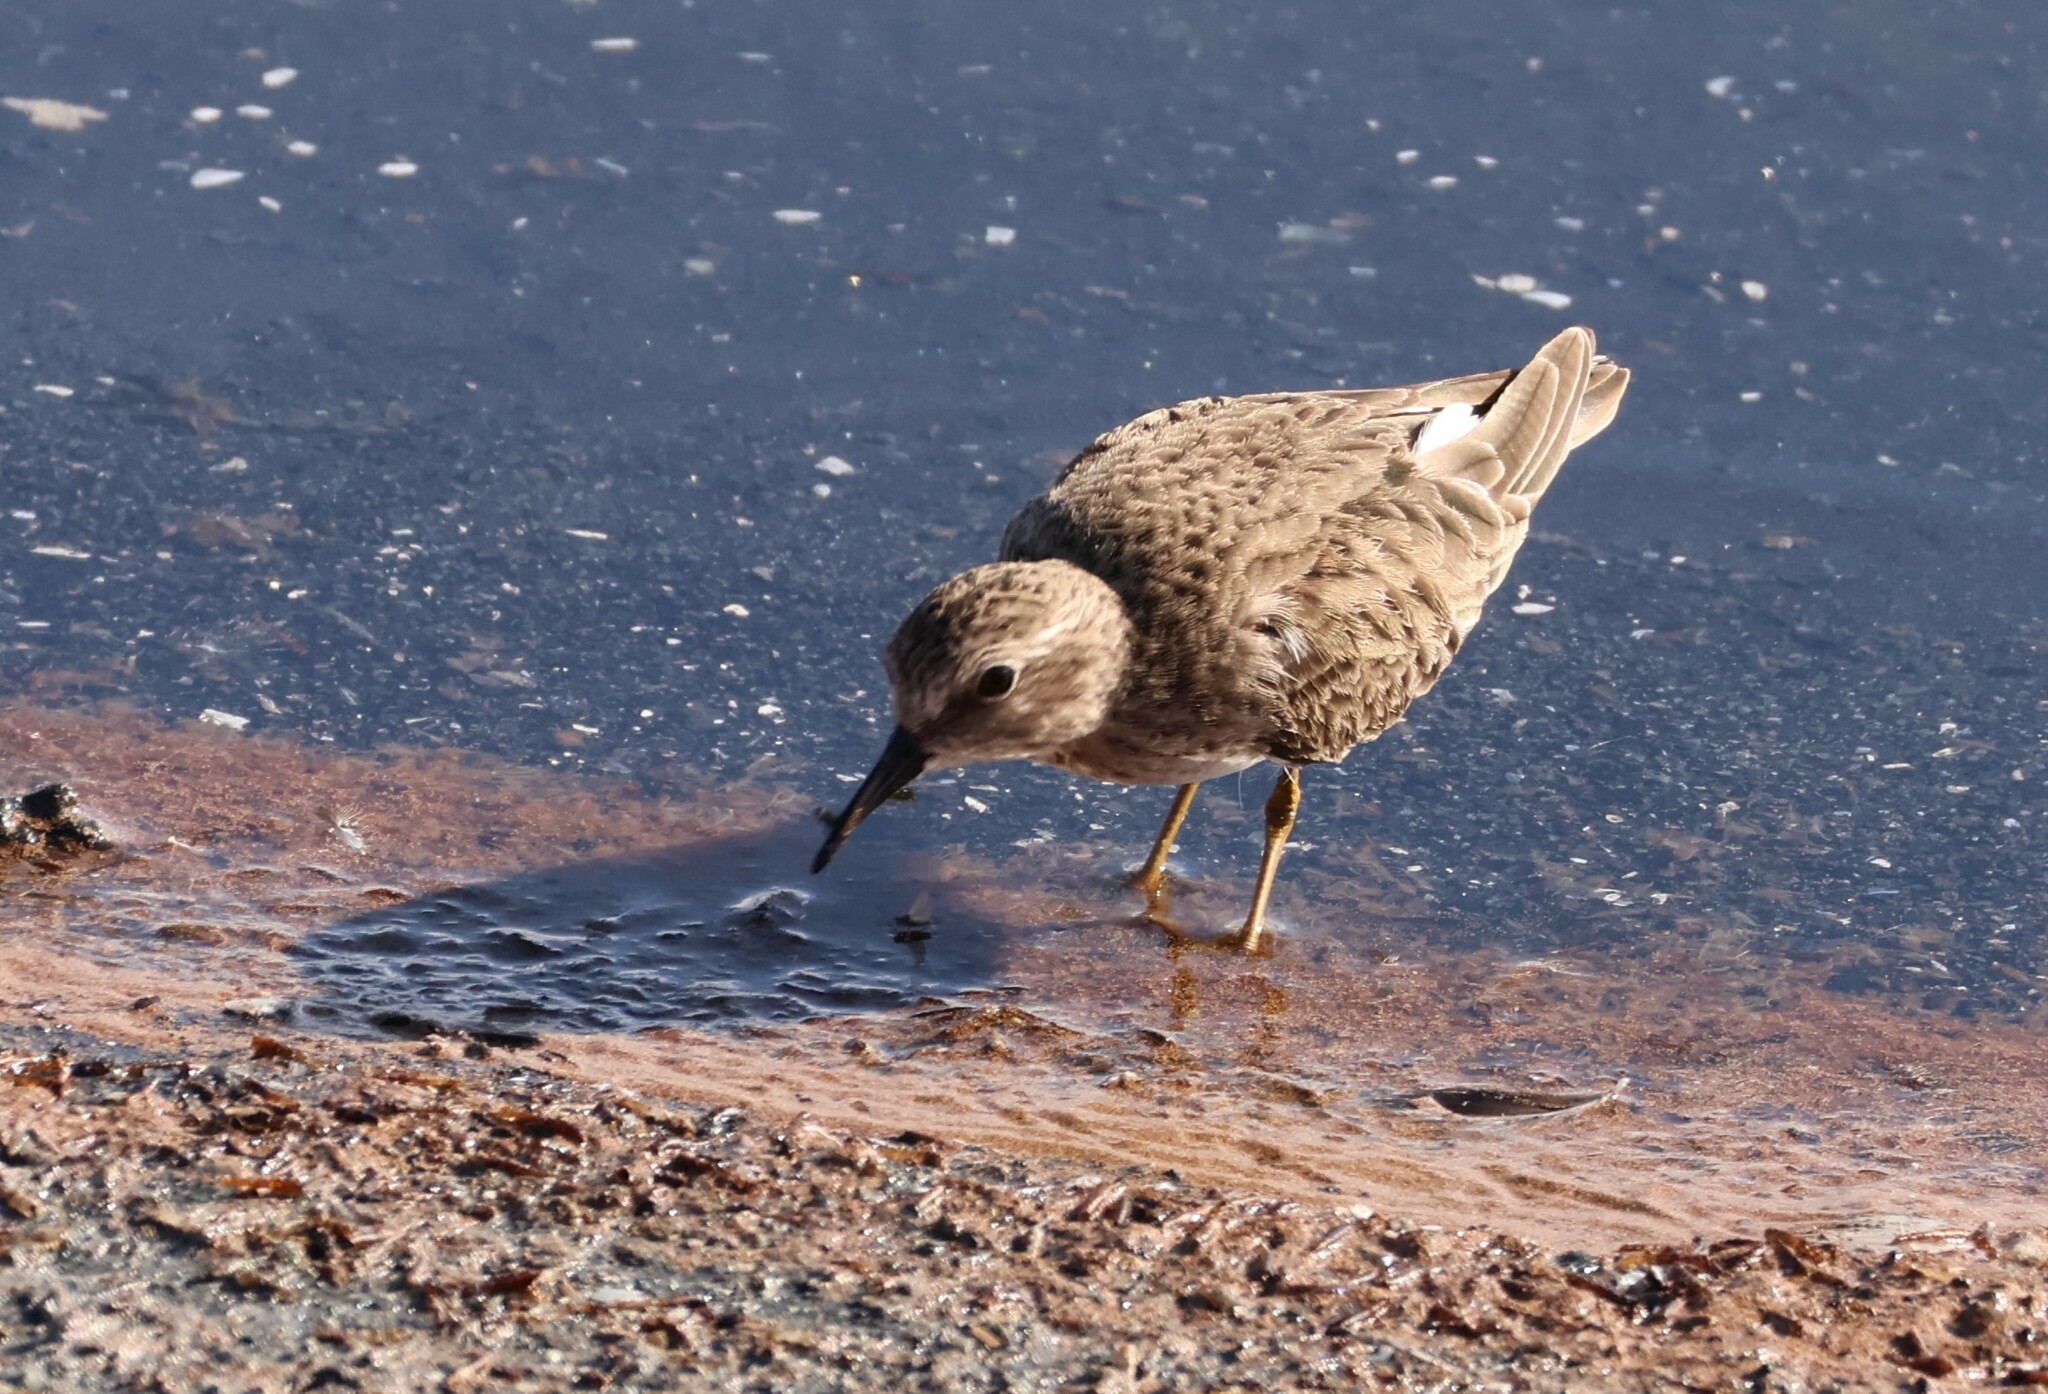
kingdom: Animalia
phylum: Chordata
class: Aves
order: Charadriiformes
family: Scolopacidae
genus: Calidris
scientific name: Calidris minutilla
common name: Least sandpiper
